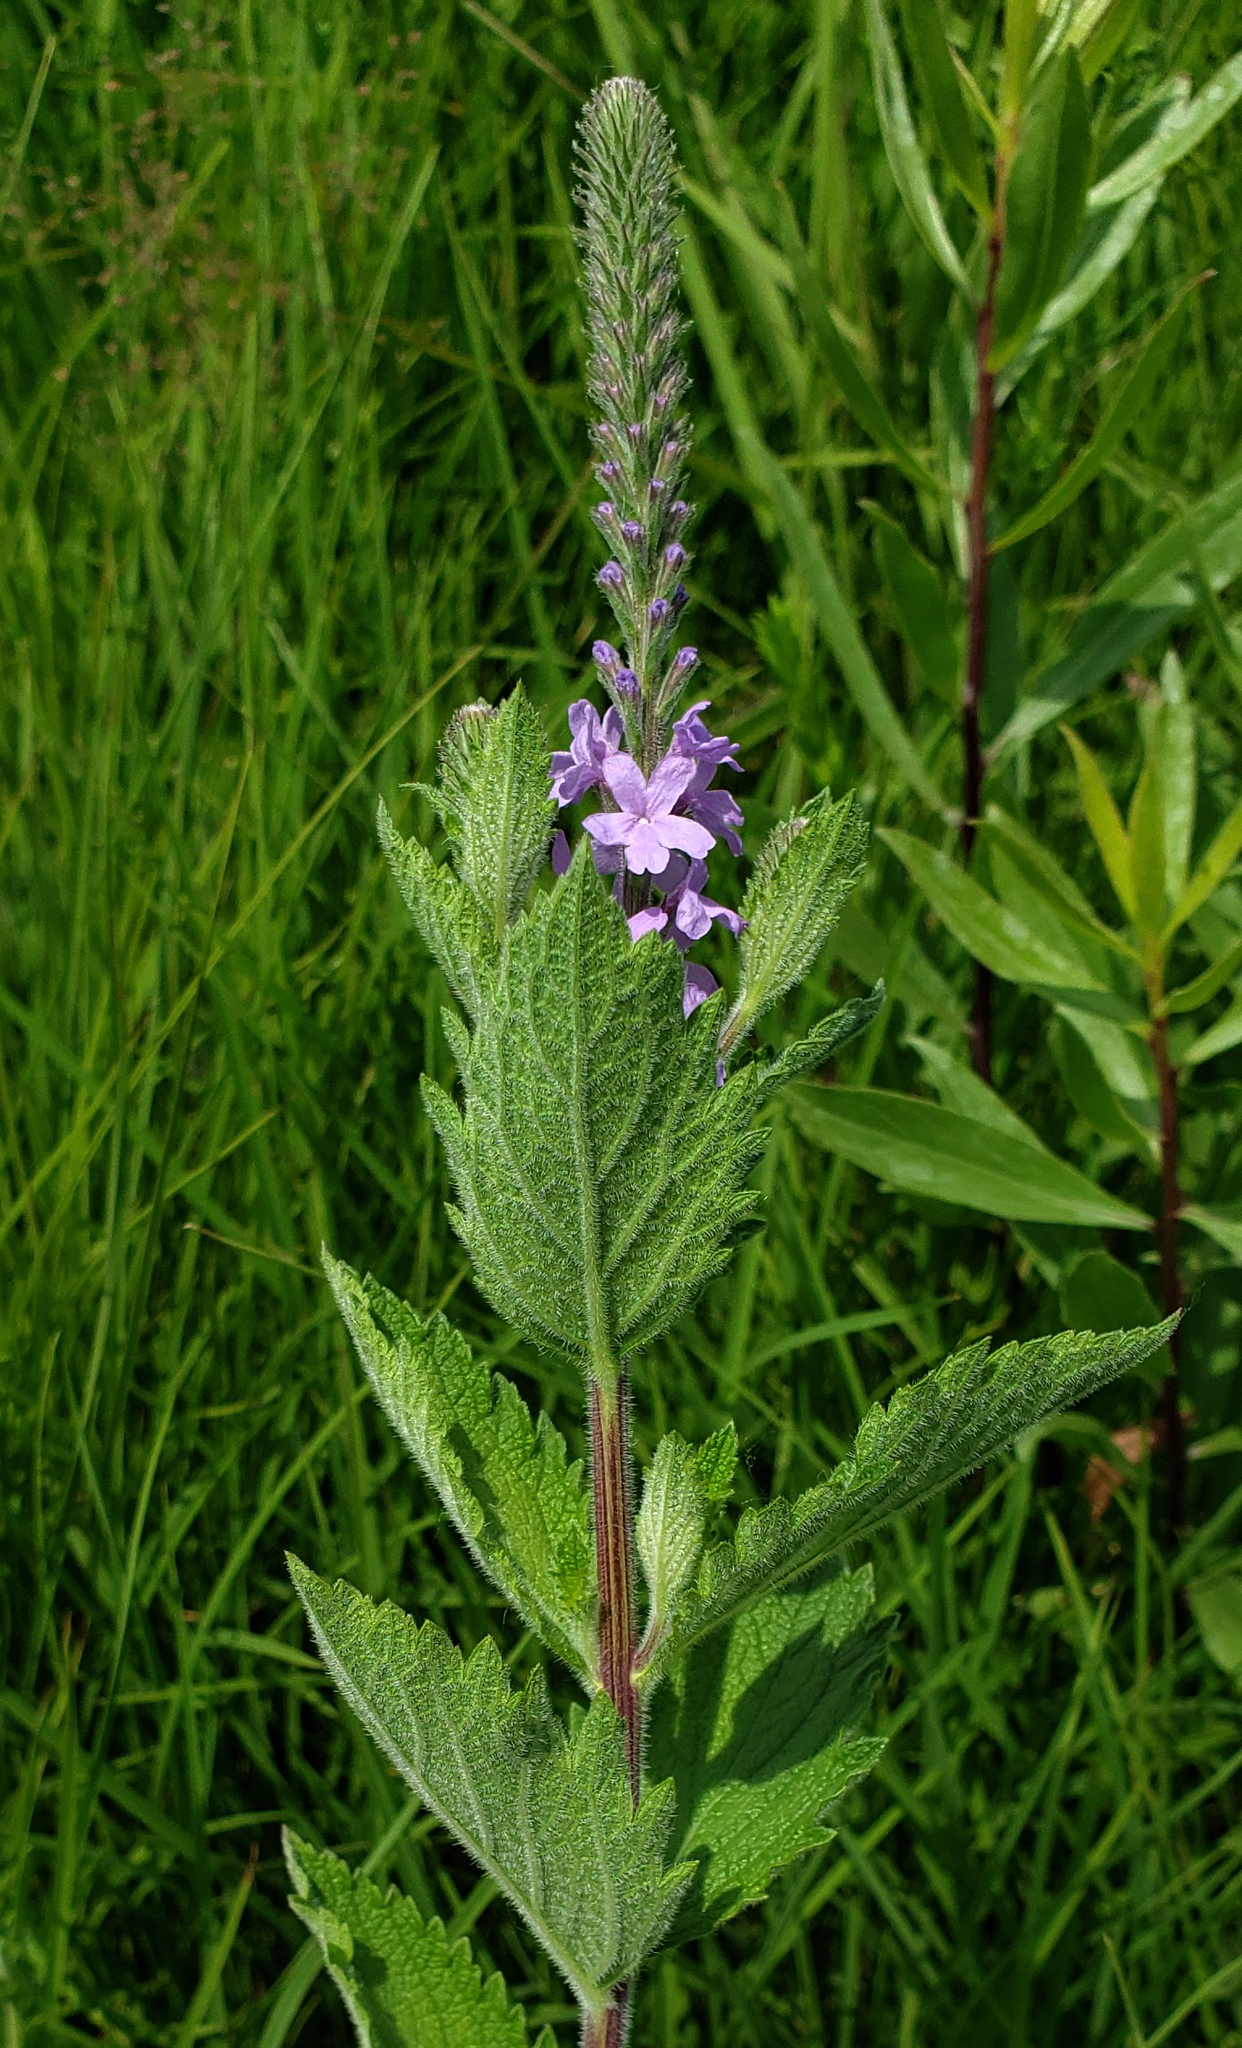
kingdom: Plantae
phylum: Tracheophyta
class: Magnoliopsida
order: Lamiales
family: Verbenaceae
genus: Verbena
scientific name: Verbena stricta
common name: Hoary vervain
